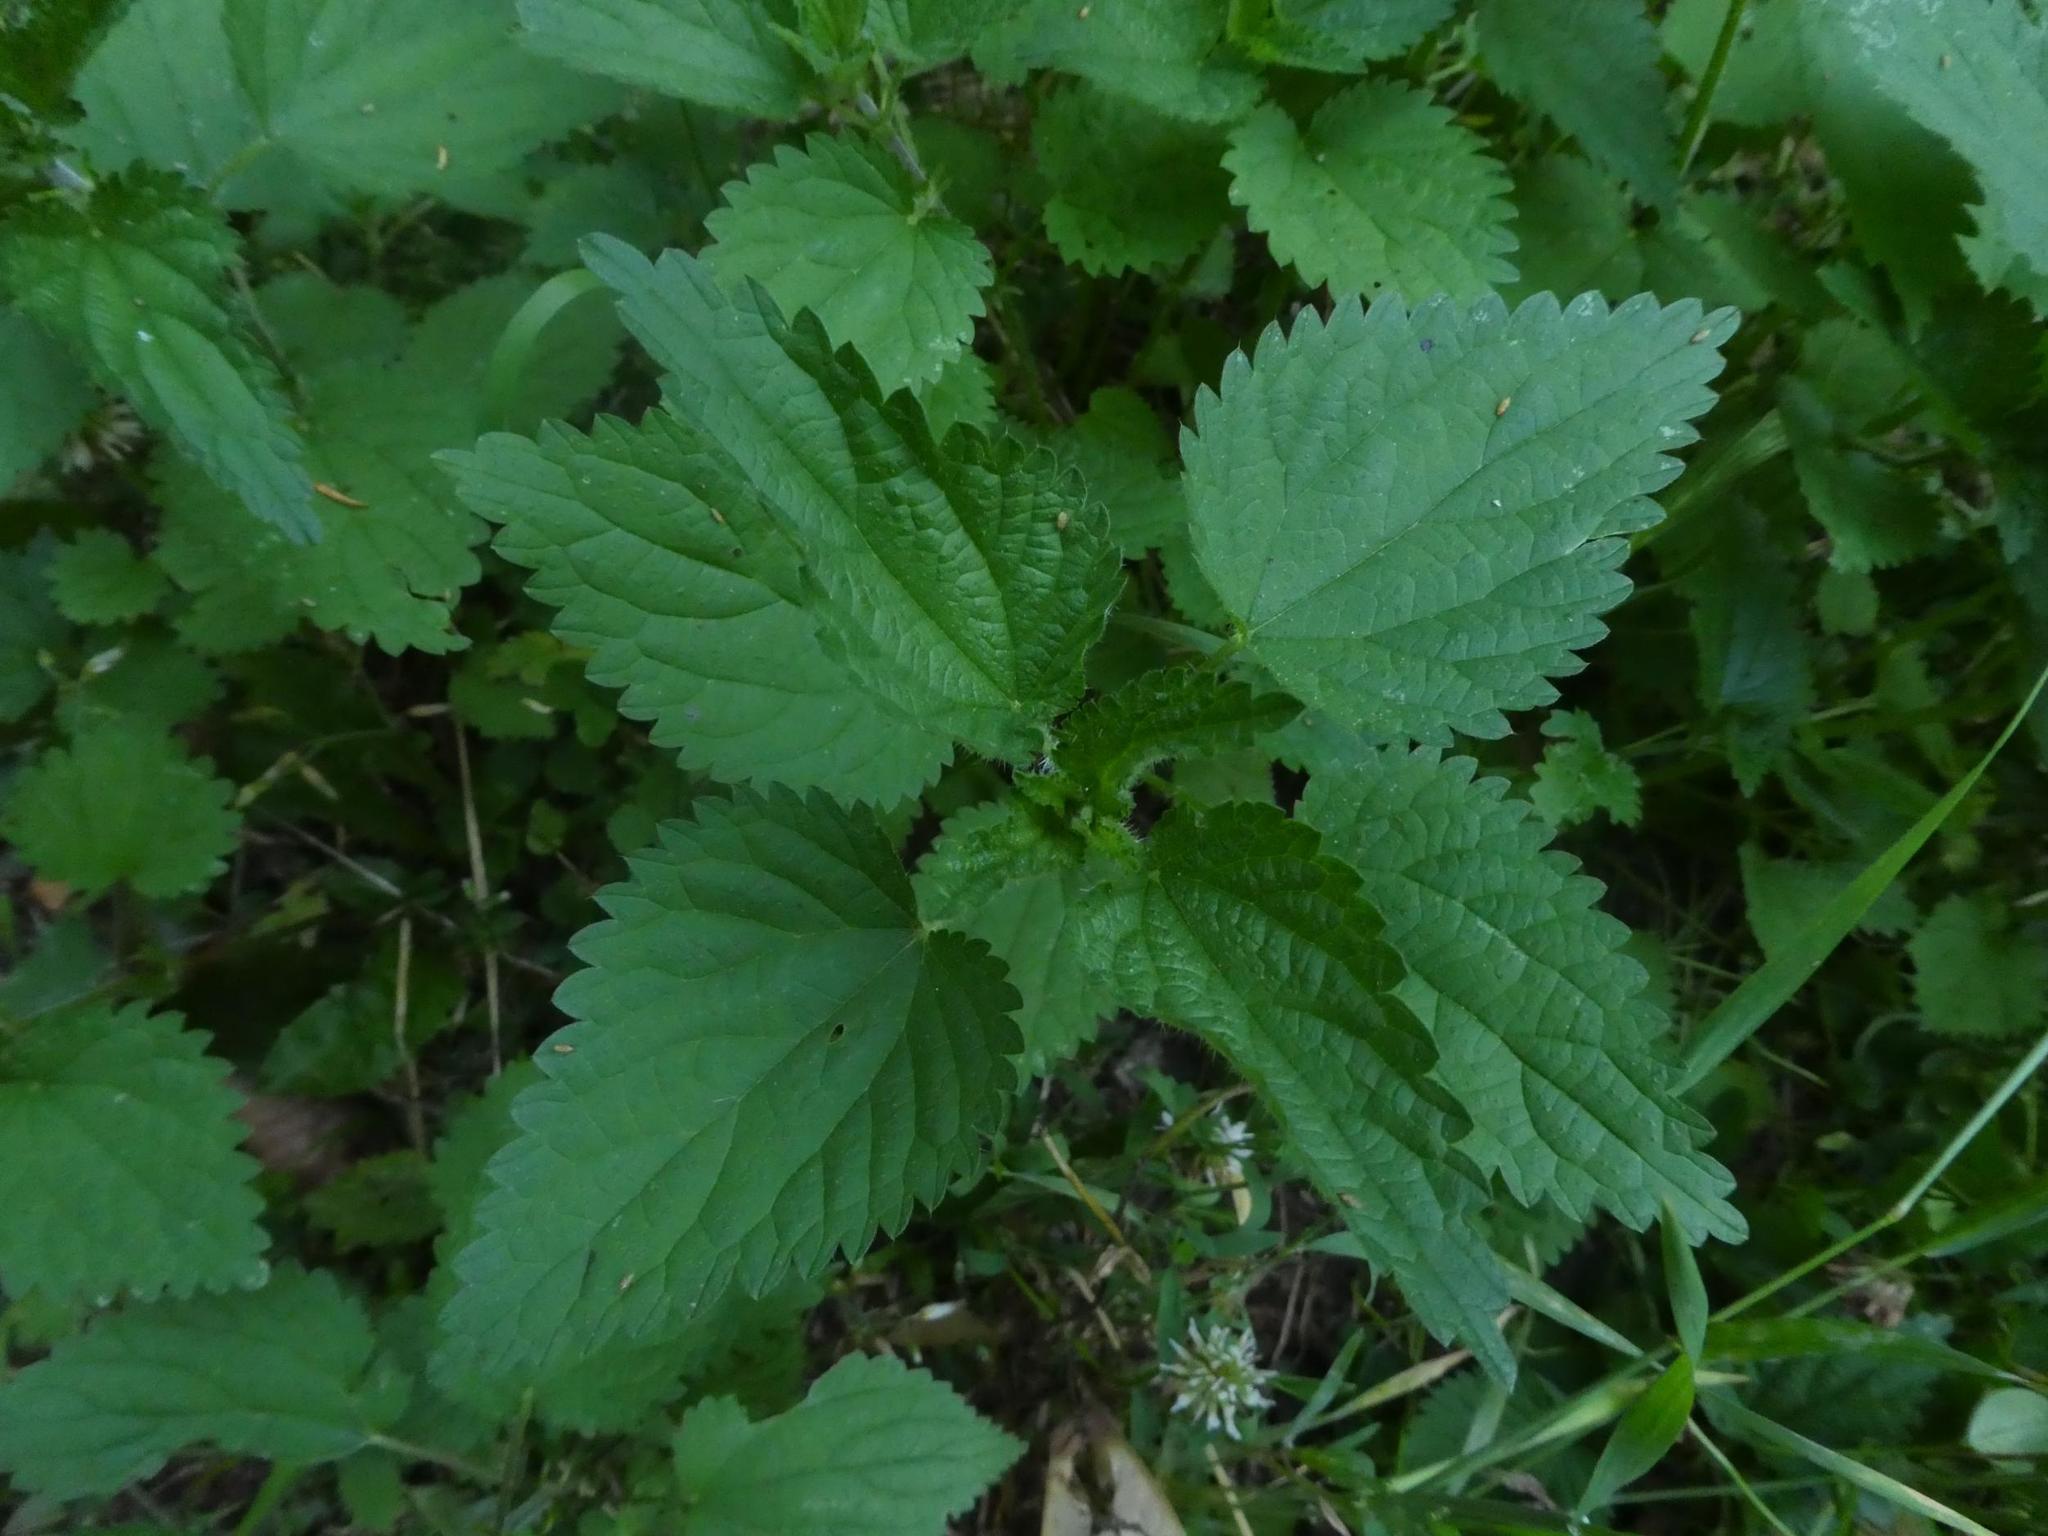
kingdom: Plantae
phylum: Tracheophyta
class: Magnoliopsida
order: Rosales
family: Urticaceae
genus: Urtica
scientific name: Urtica dioica
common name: Common nettle
